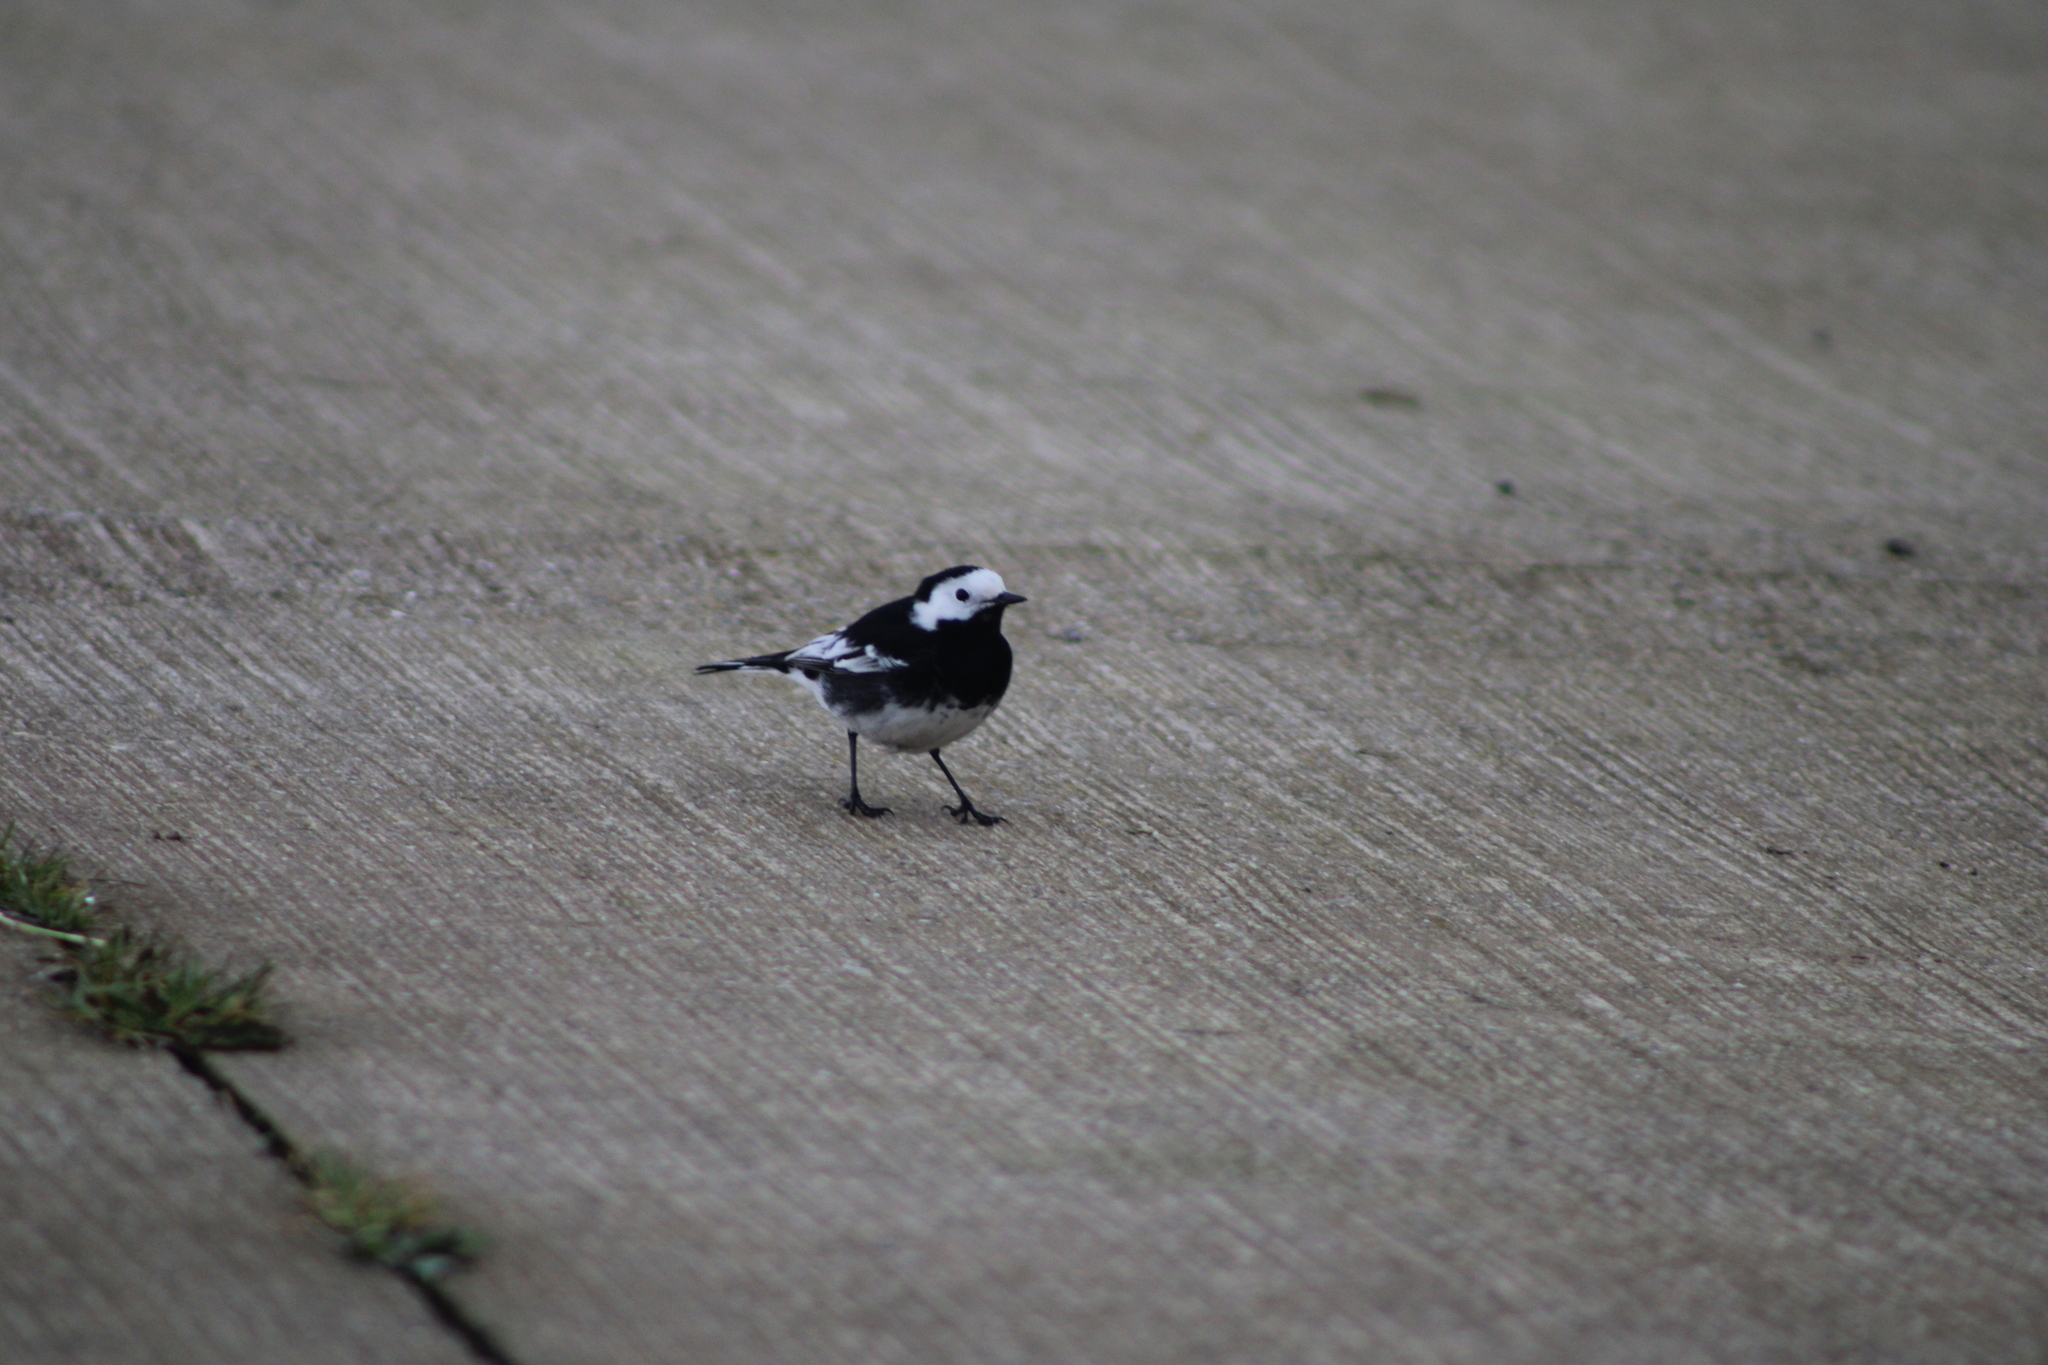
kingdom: Animalia
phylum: Chordata
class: Aves
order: Passeriformes
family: Motacillidae
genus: Motacilla
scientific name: Motacilla alba
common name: White wagtail
